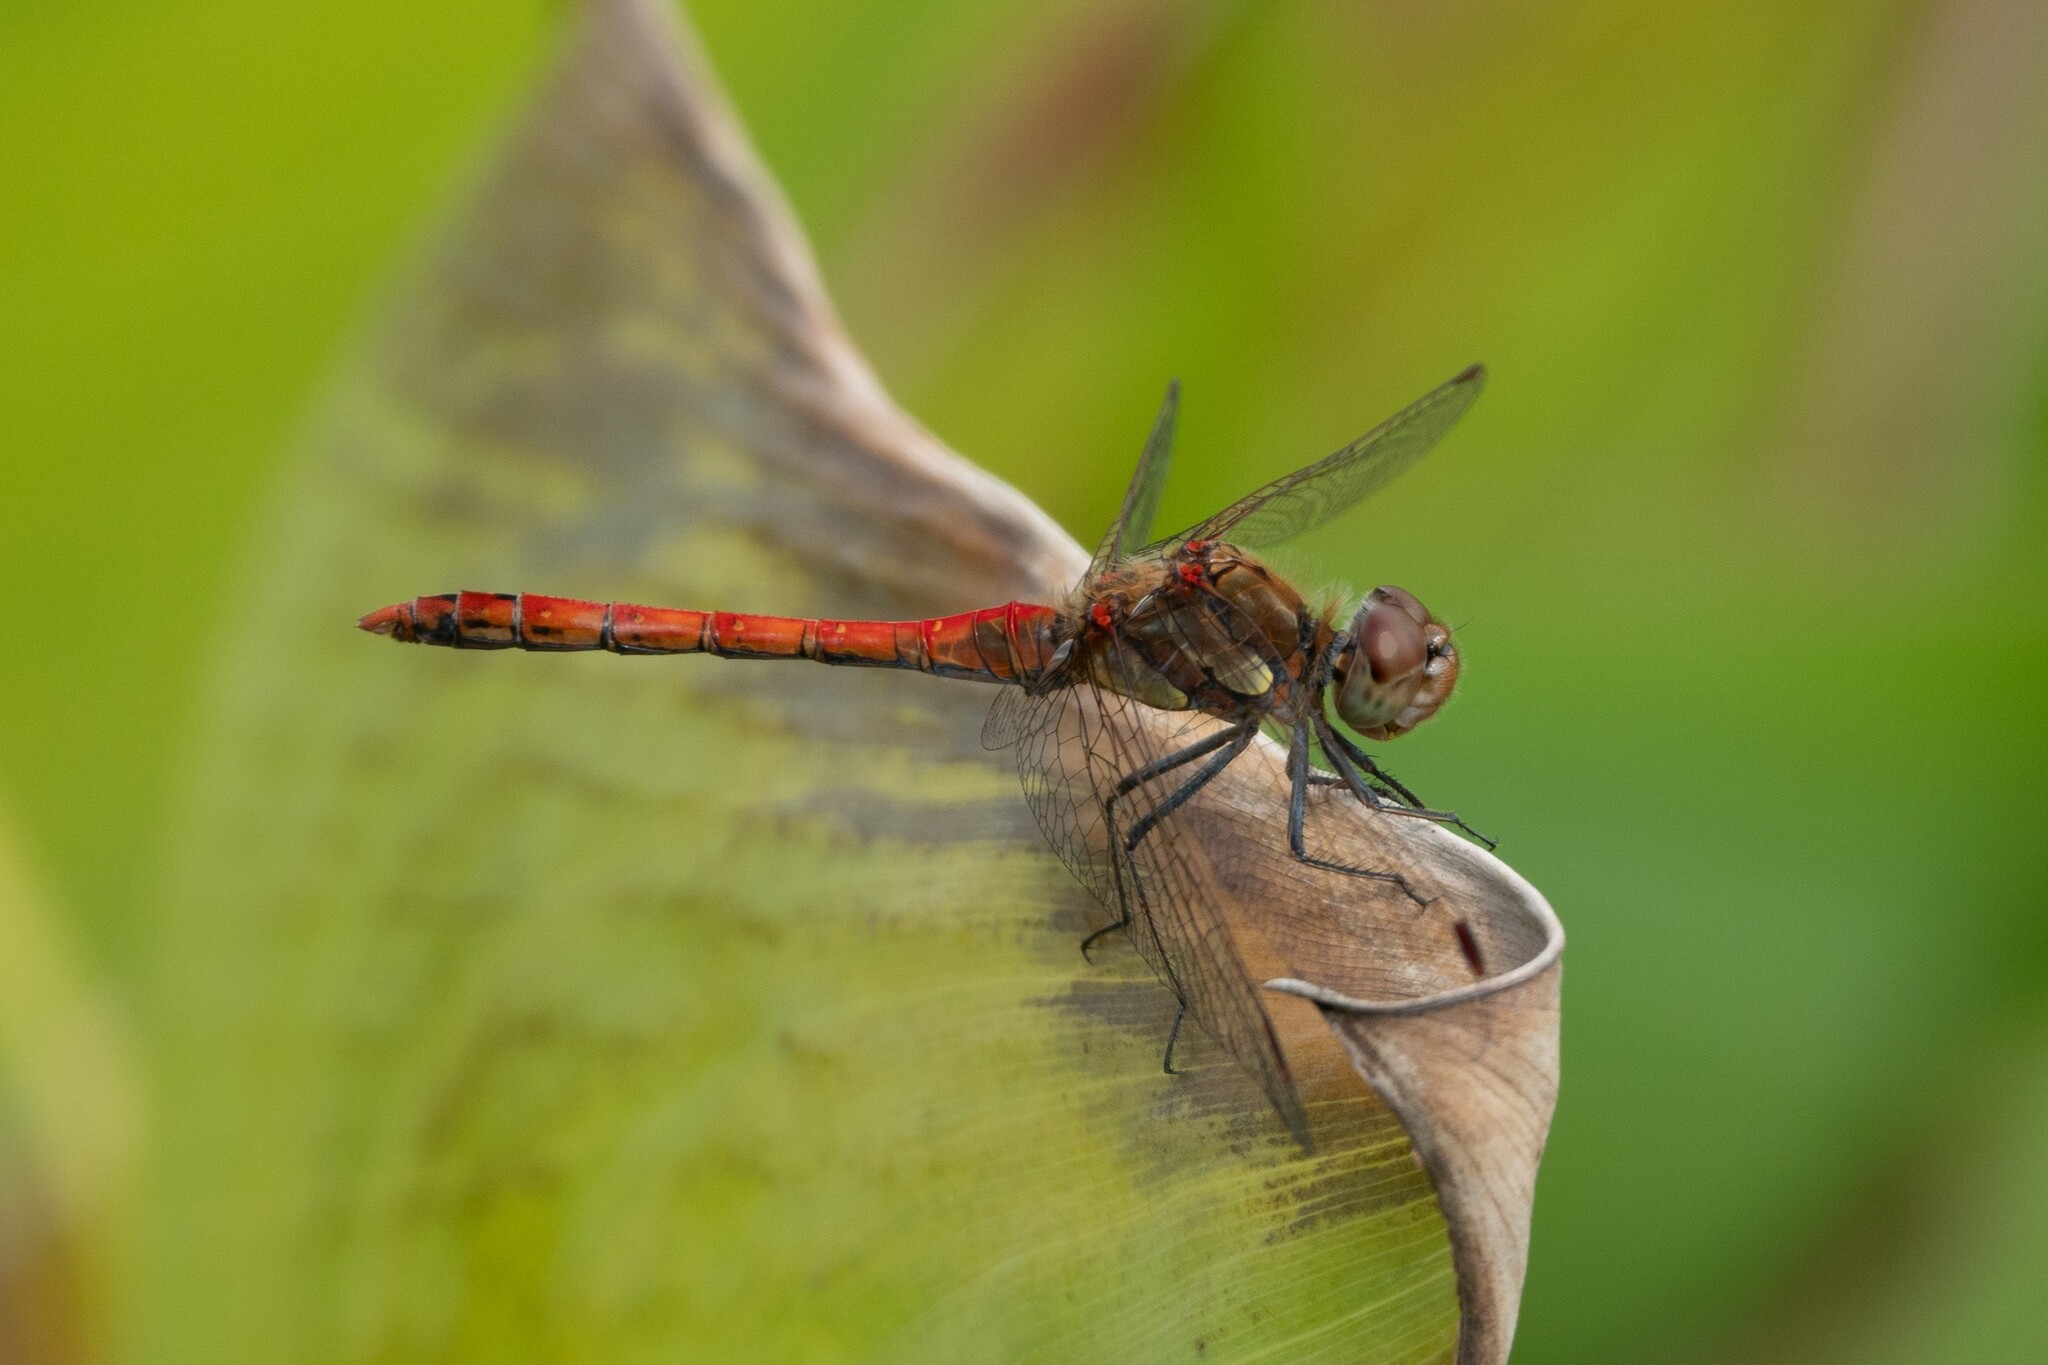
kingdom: Animalia
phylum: Arthropoda
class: Insecta
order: Odonata
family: Libellulidae
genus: Sympetrum
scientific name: Sympetrum striolatum
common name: Common darter
